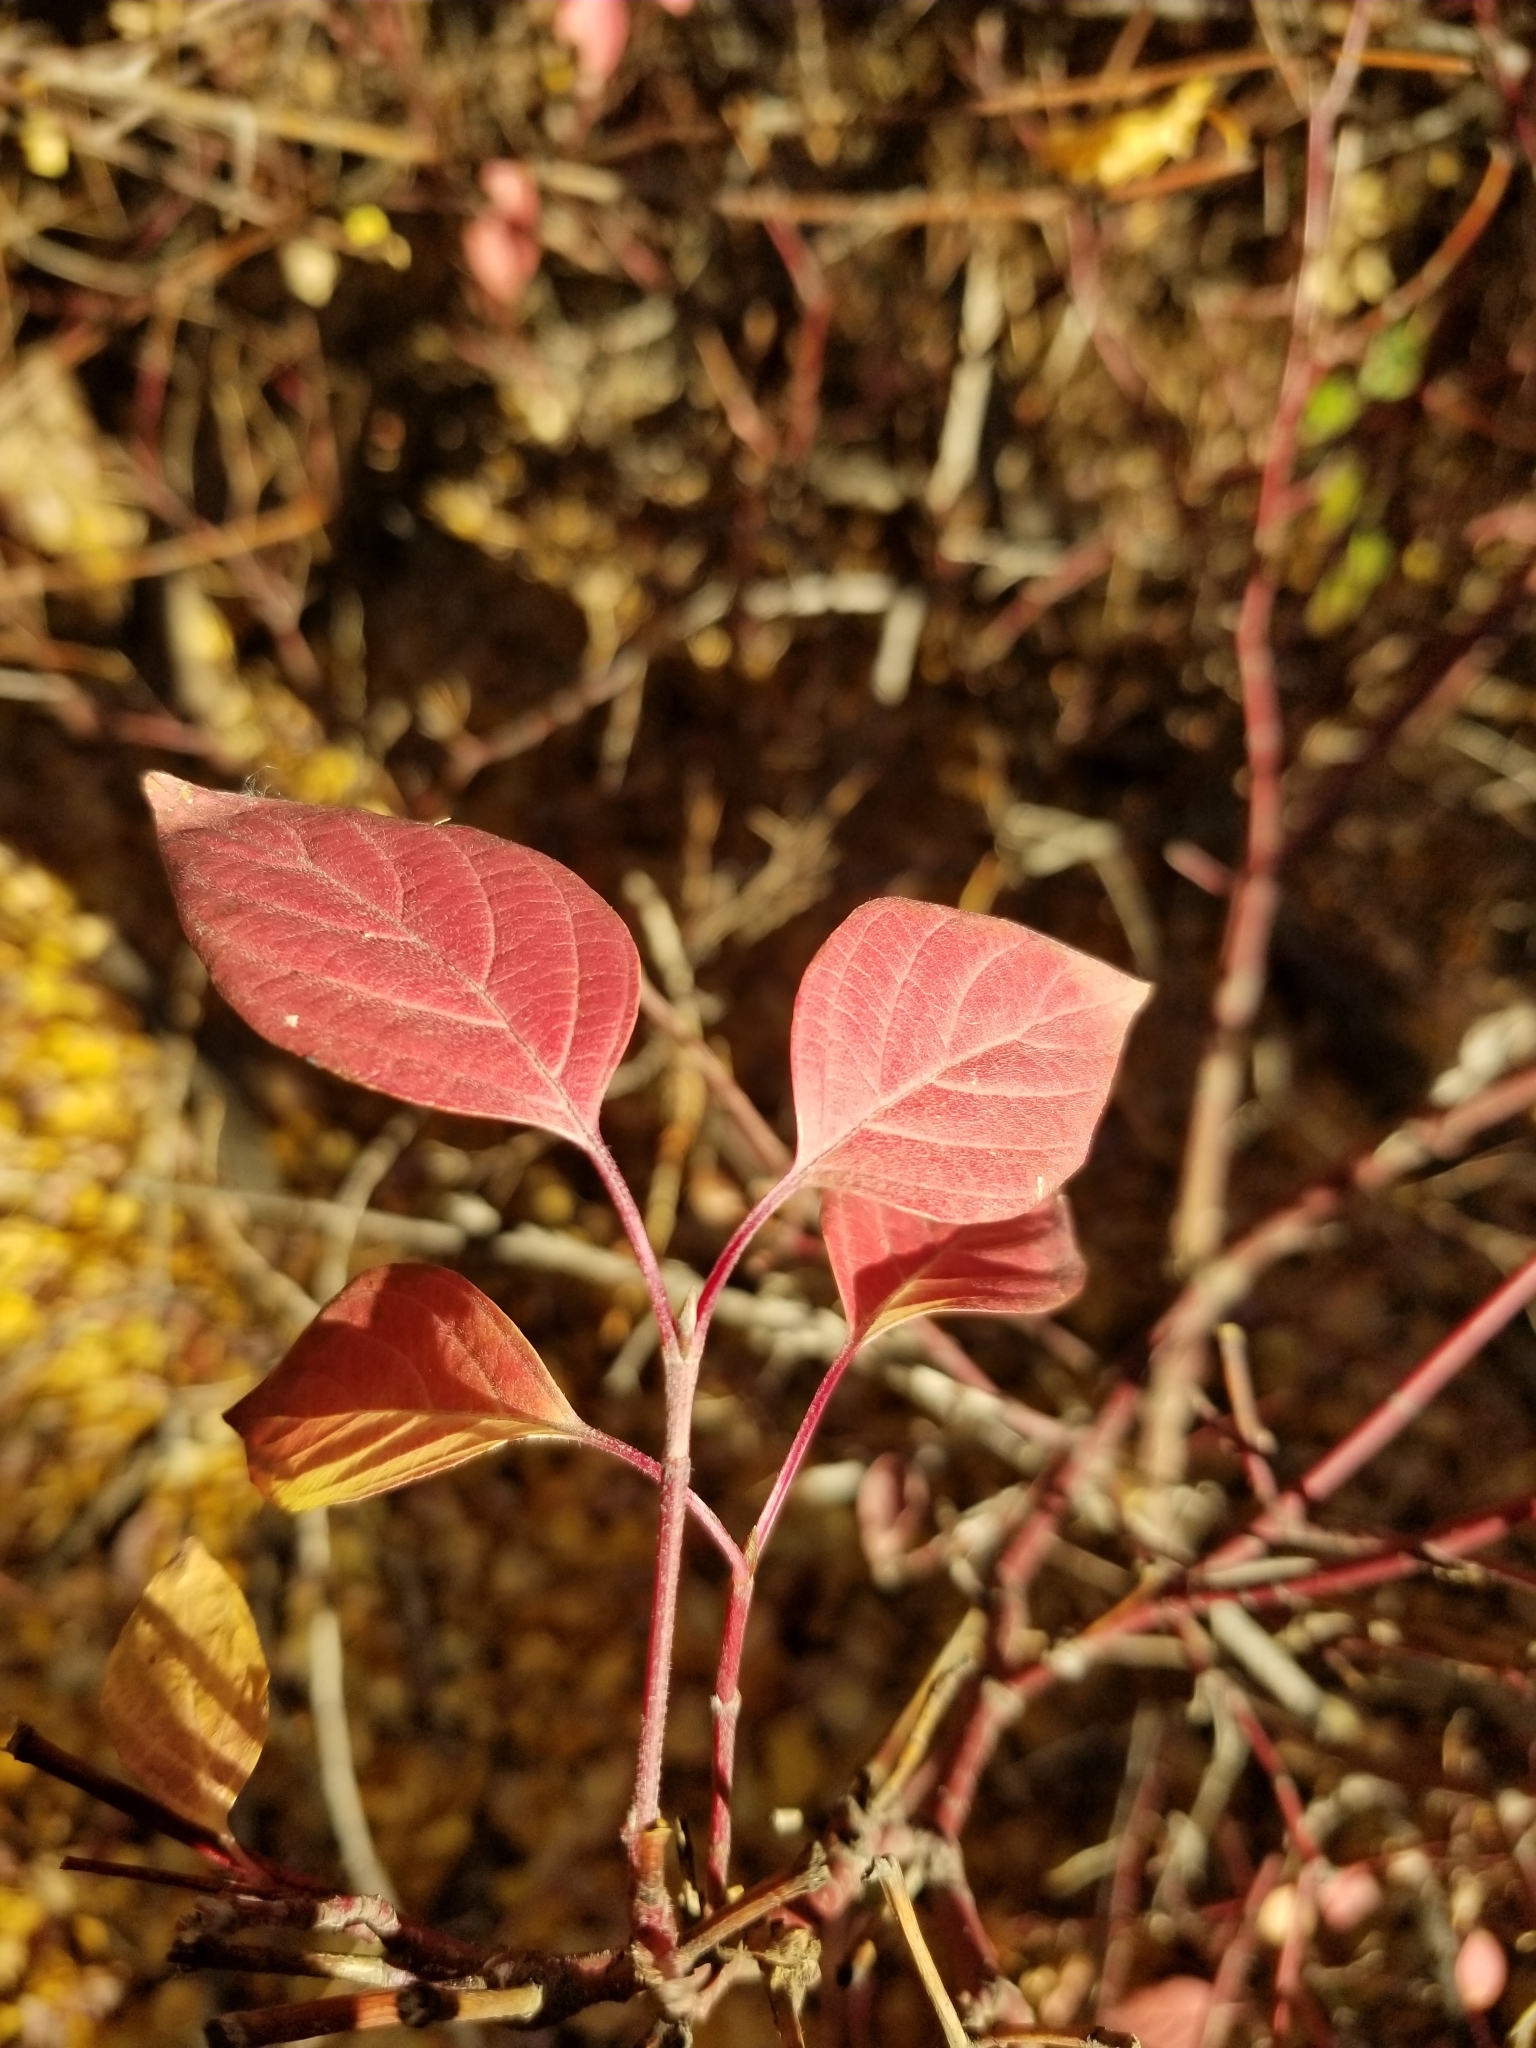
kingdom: Plantae
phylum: Tracheophyta
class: Magnoliopsida
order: Cornales
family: Cornaceae
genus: Cornus
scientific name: Cornus sericea
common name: Red-osier dogwood
